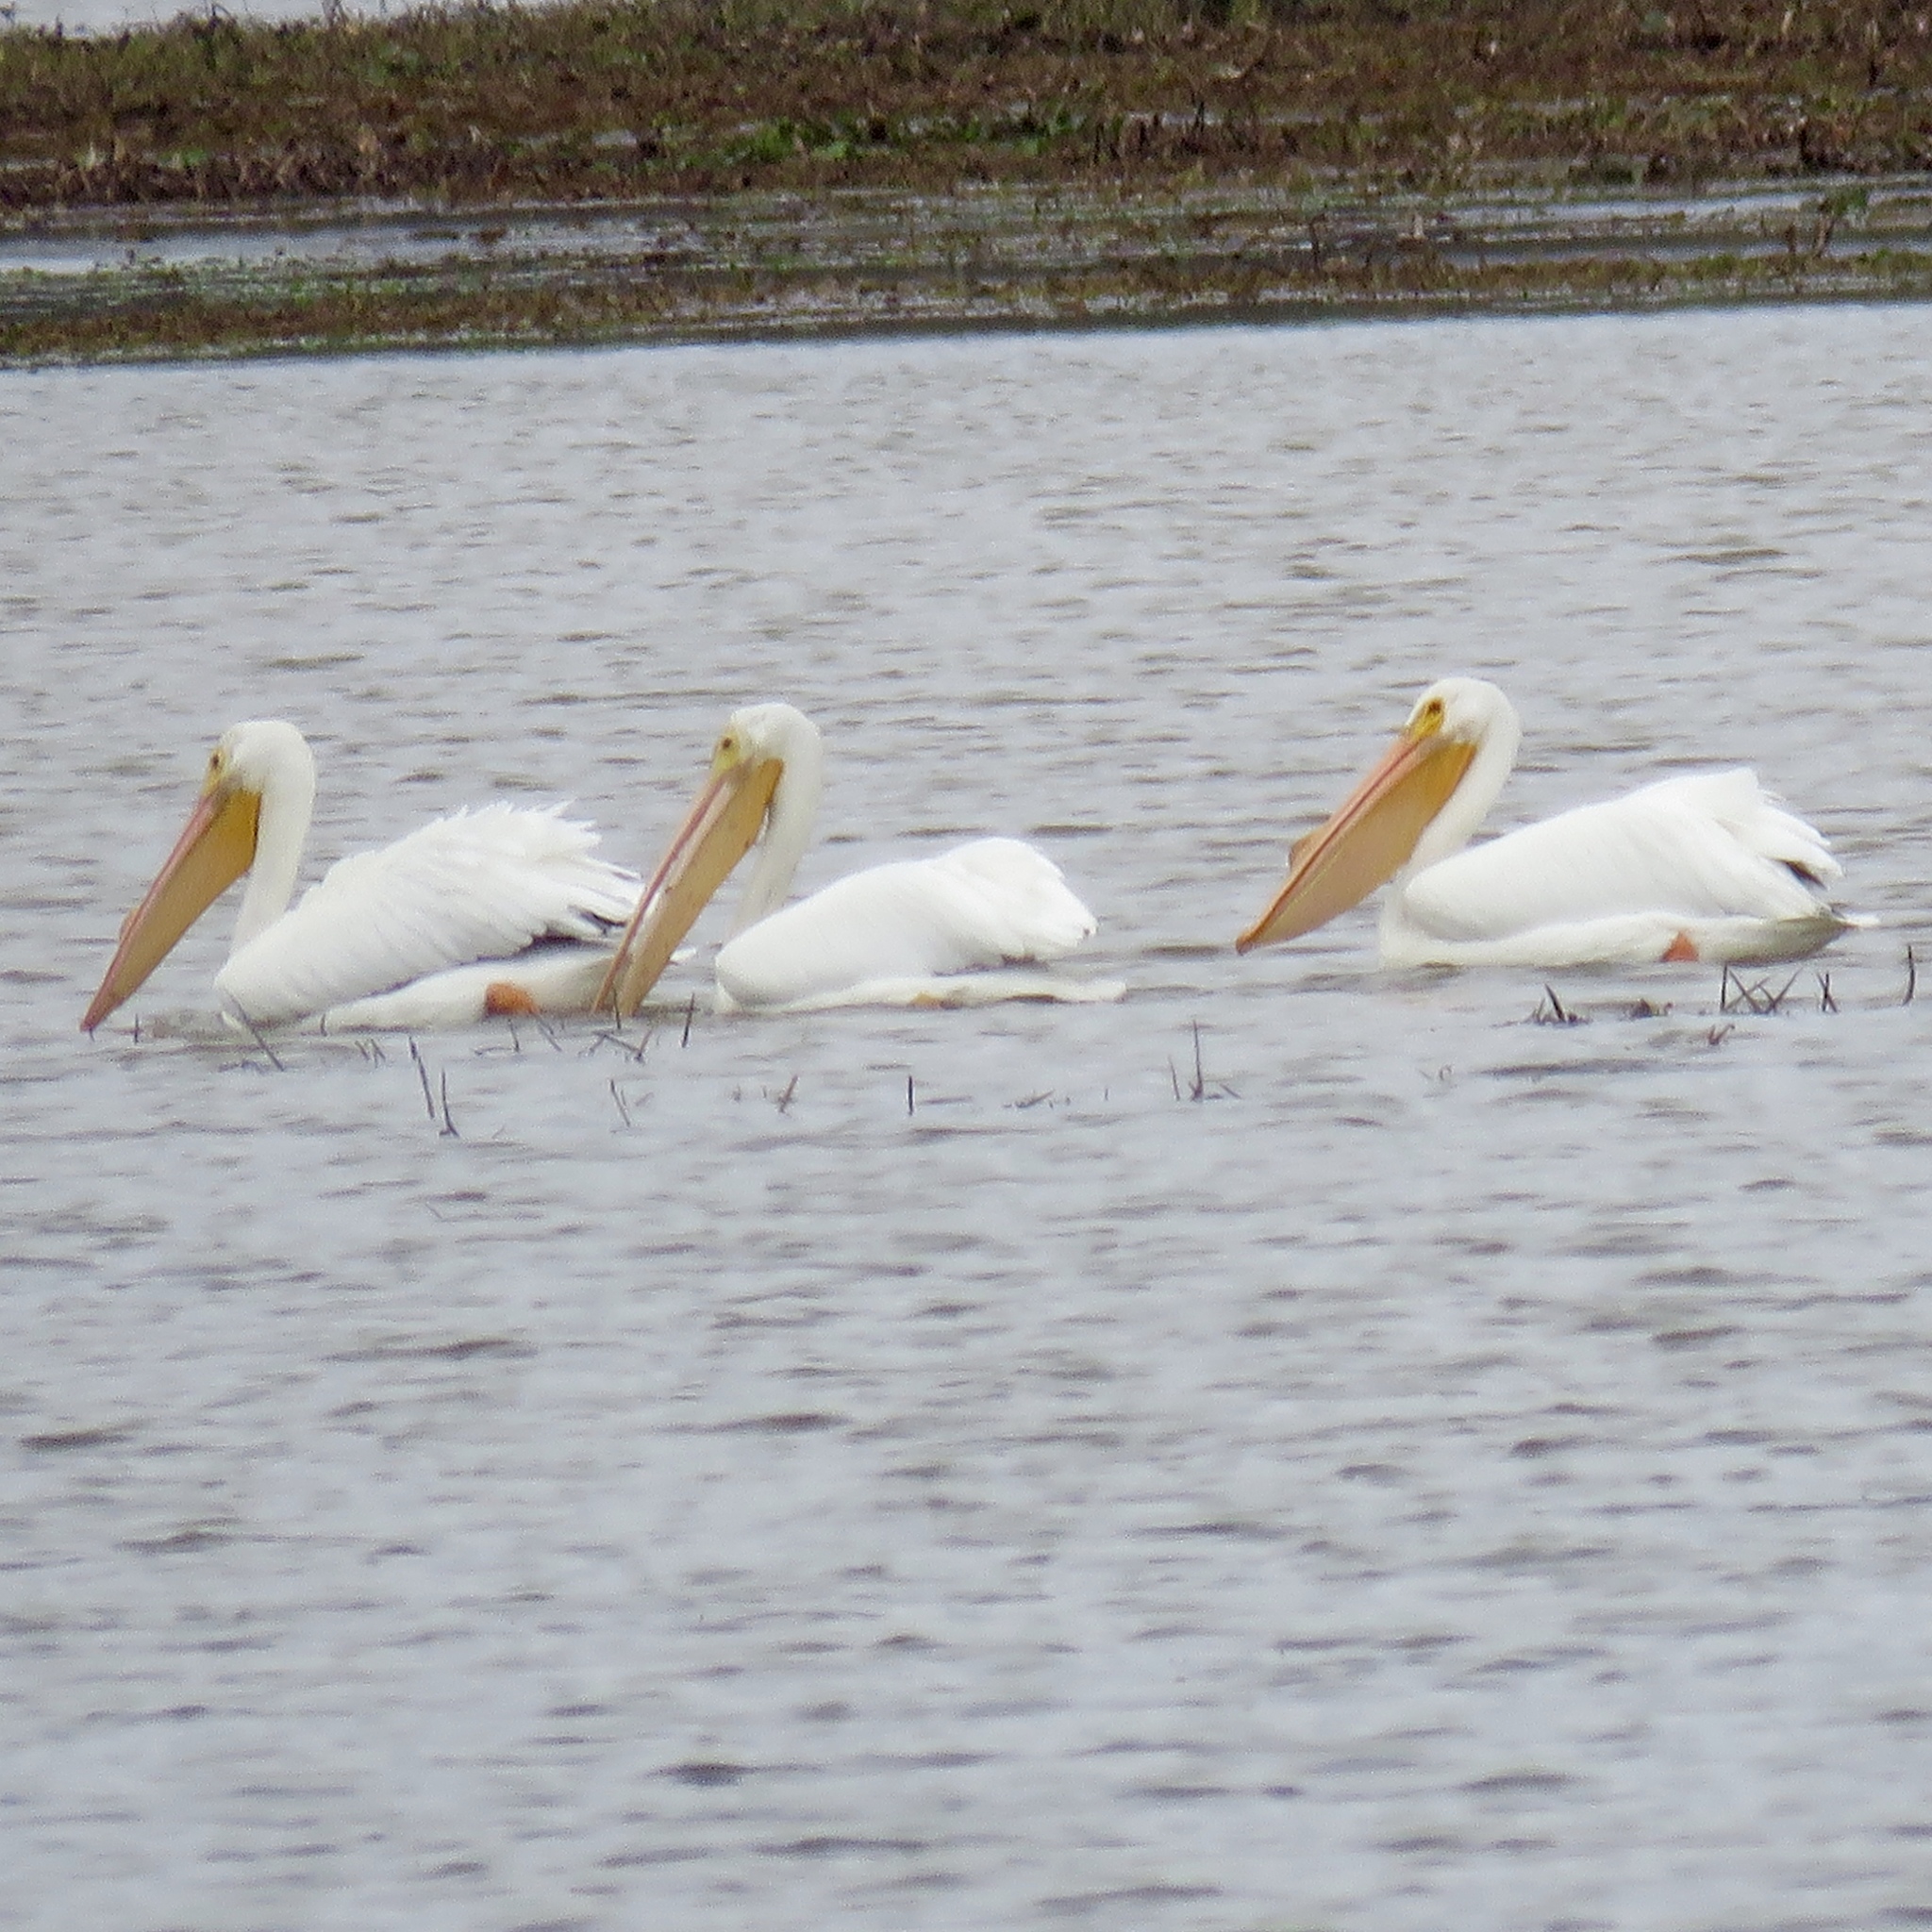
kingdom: Animalia
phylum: Chordata
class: Aves
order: Pelecaniformes
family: Pelecanidae
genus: Pelecanus
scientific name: Pelecanus erythrorhynchos
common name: American white pelican
